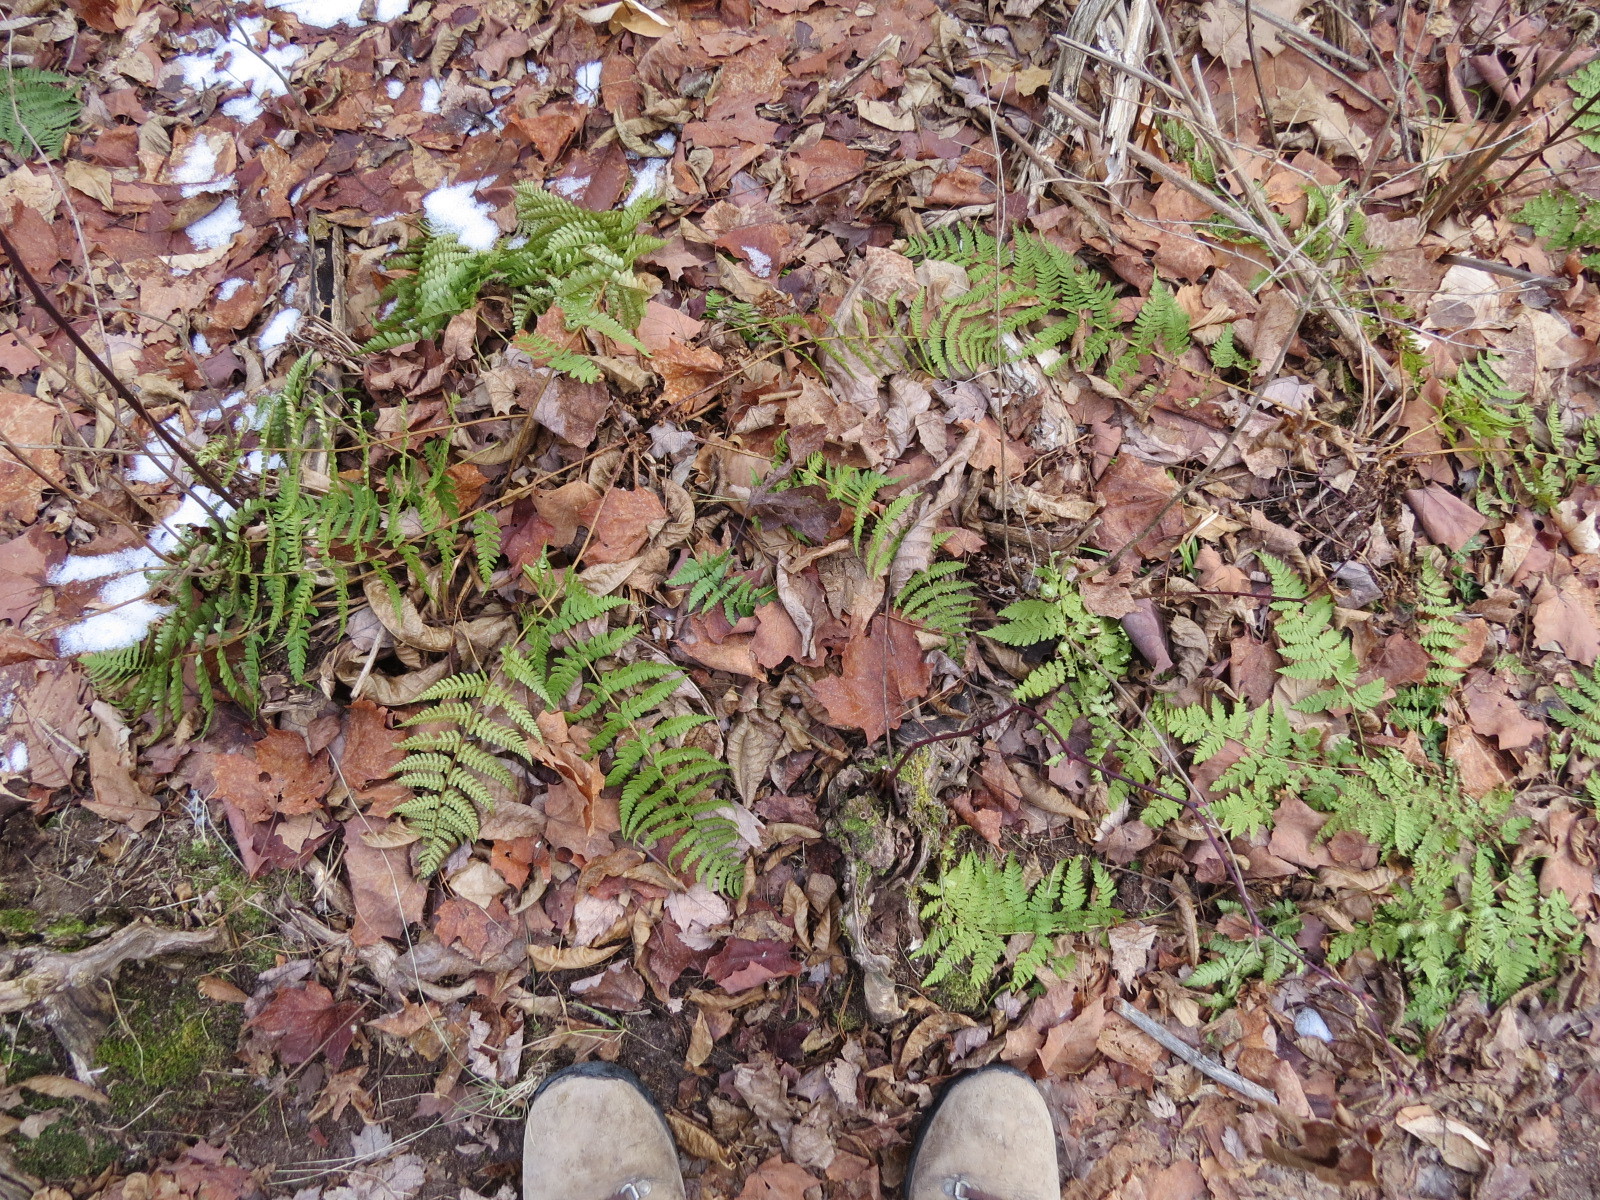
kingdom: Plantae
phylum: Tracheophyta
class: Polypodiopsida
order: Polypodiales
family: Dryopteridaceae
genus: Dryopteris
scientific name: Dryopteris marginalis
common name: Marginal wood fern
